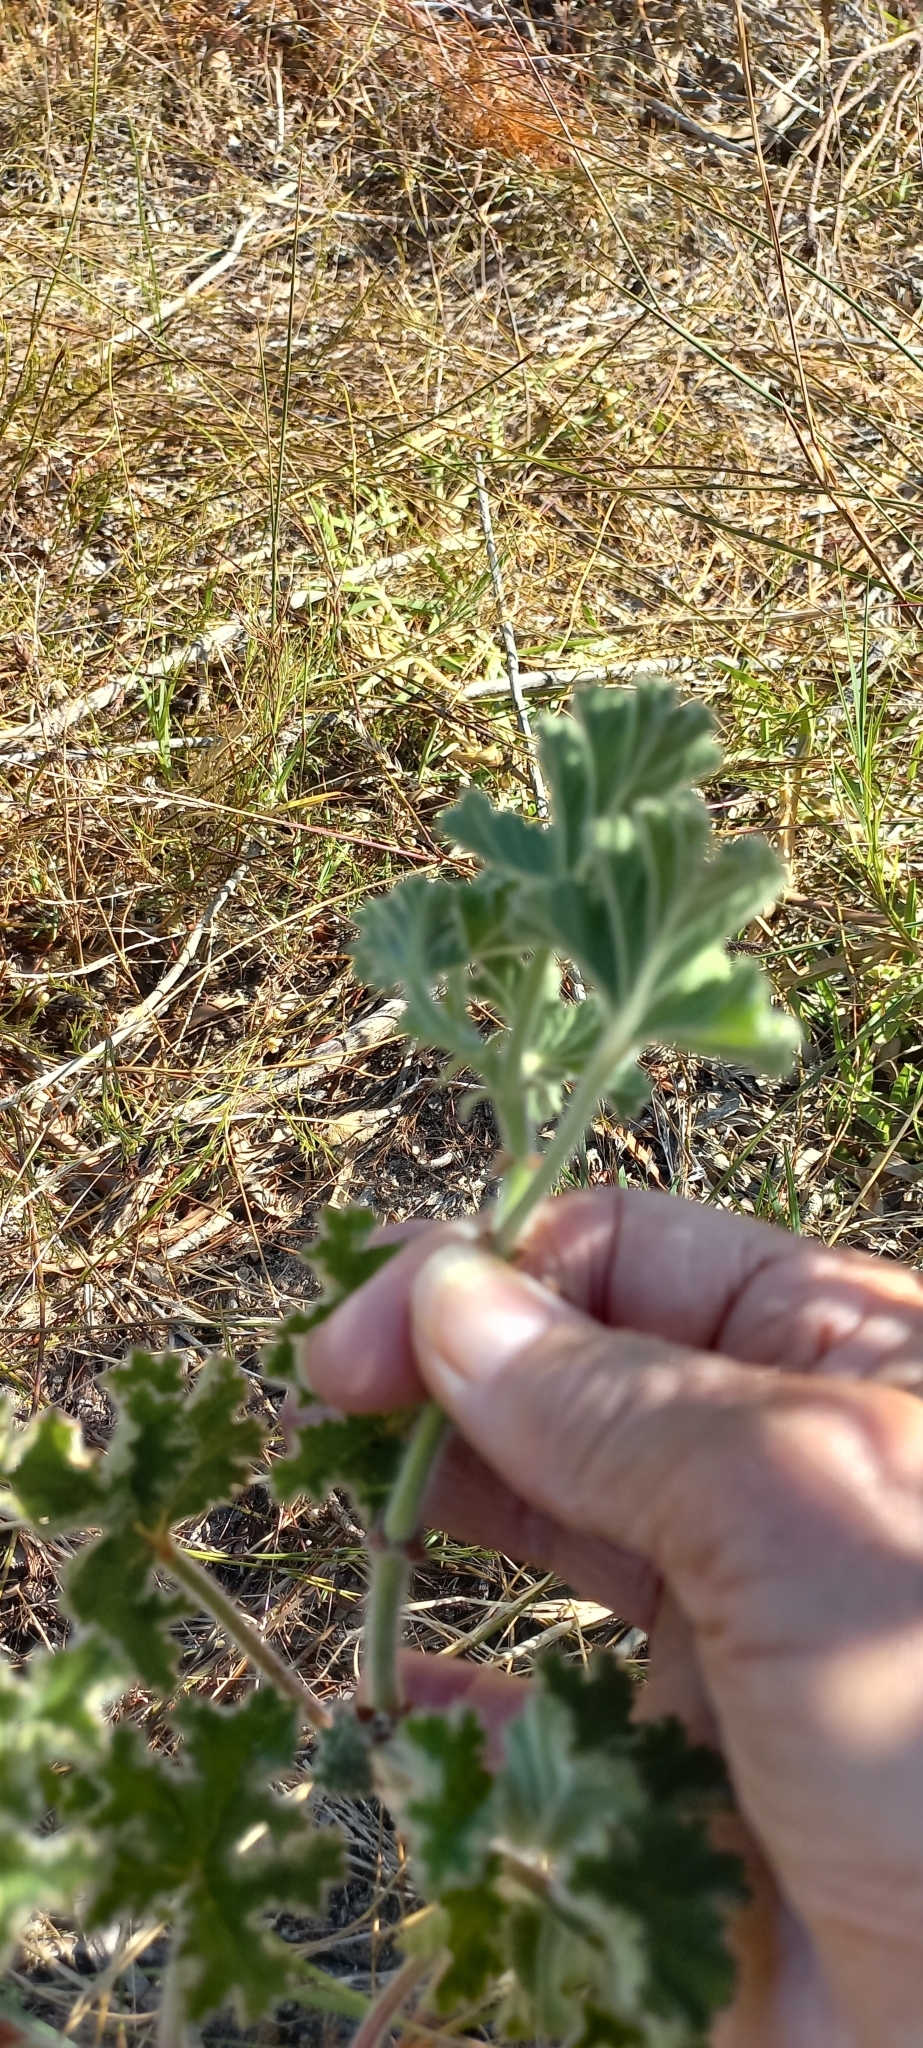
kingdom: Plantae
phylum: Tracheophyta
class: Magnoliopsida
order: Geraniales
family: Geraniaceae
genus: Pelargonium
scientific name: Pelargonium capitatum
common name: Rose scented geranium
